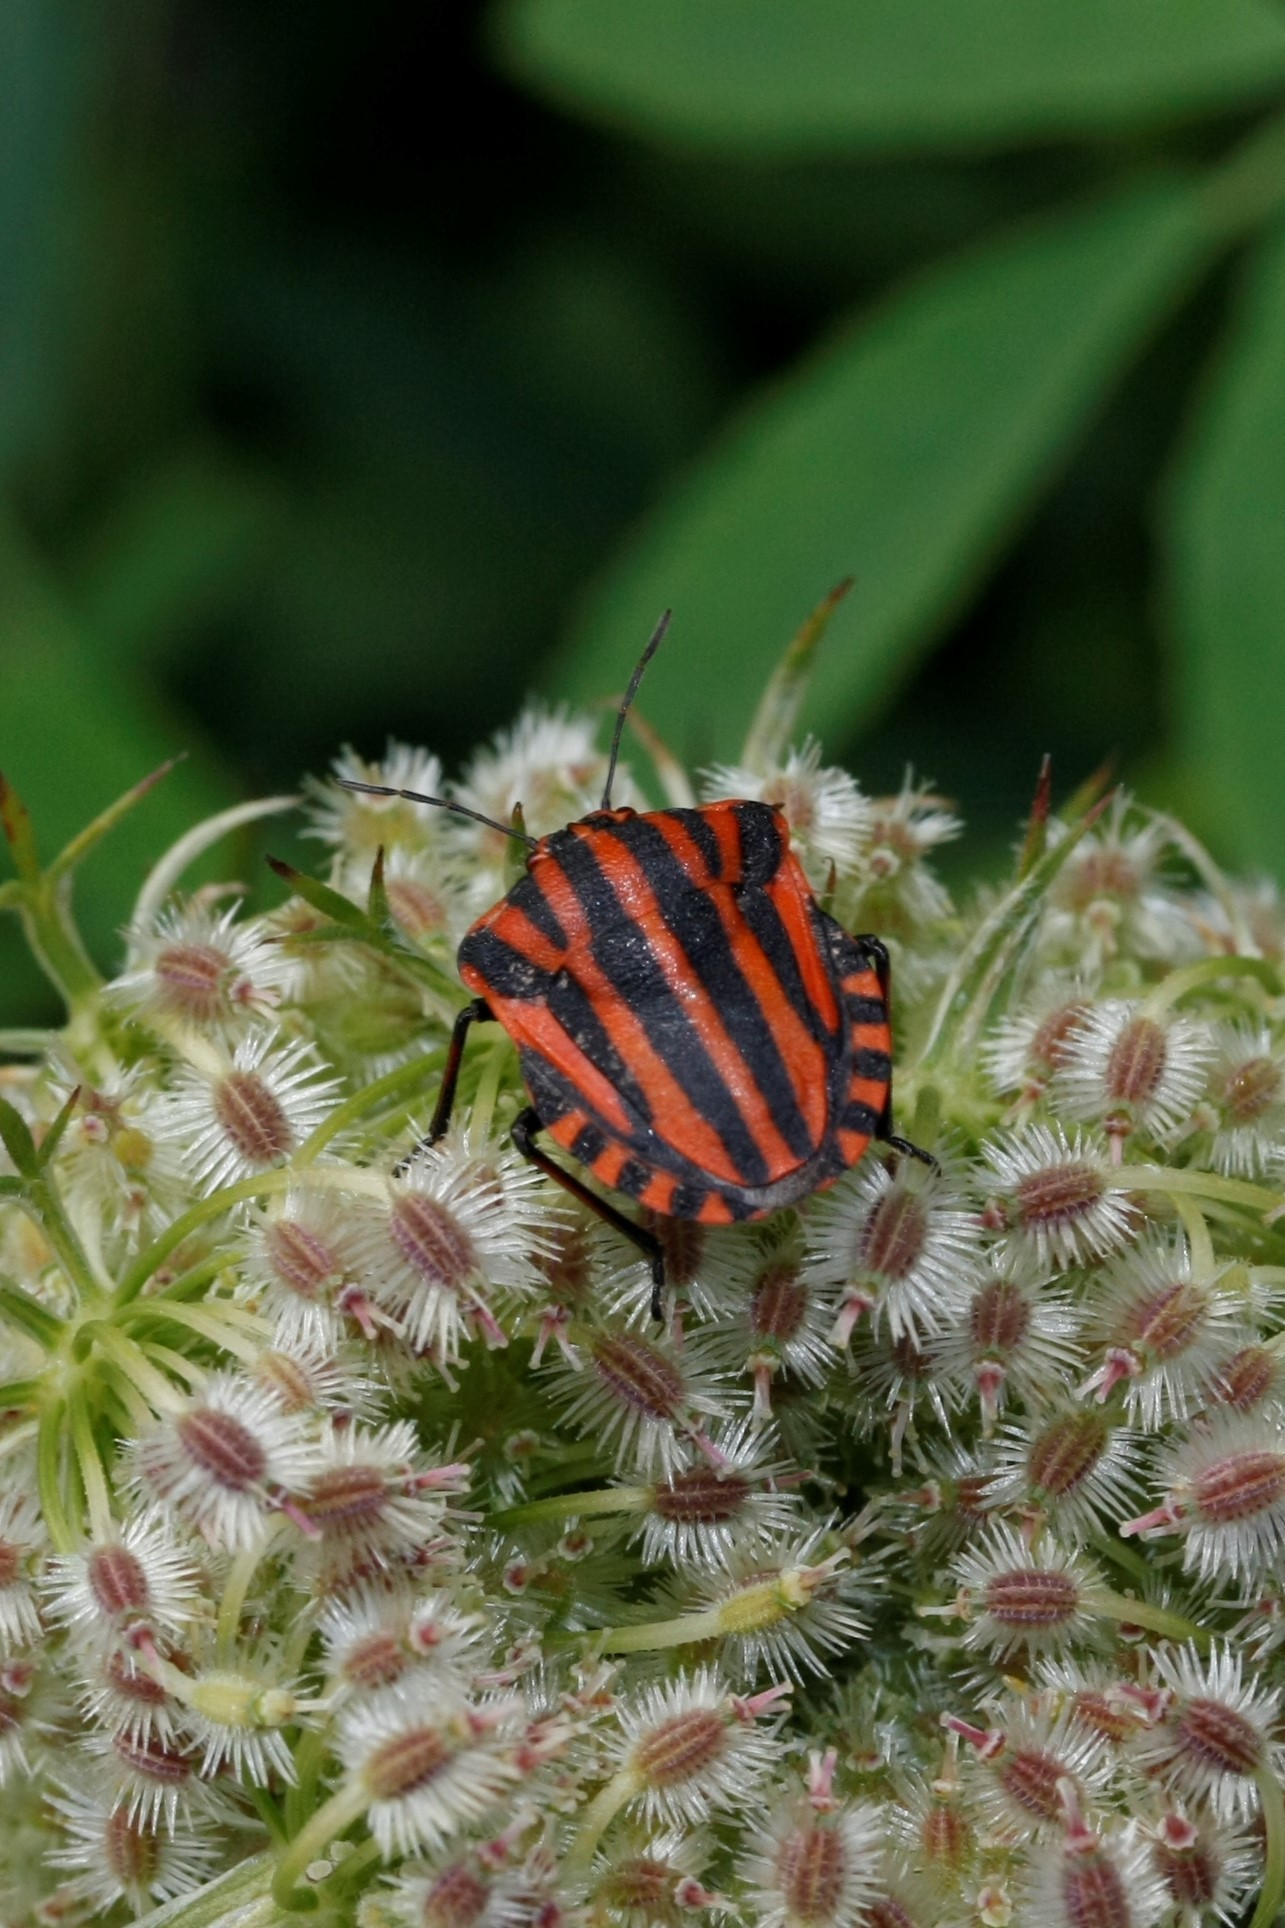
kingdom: Animalia
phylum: Arthropoda
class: Insecta
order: Hemiptera
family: Pentatomidae
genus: Graphosoma
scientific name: Graphosoma italicum
